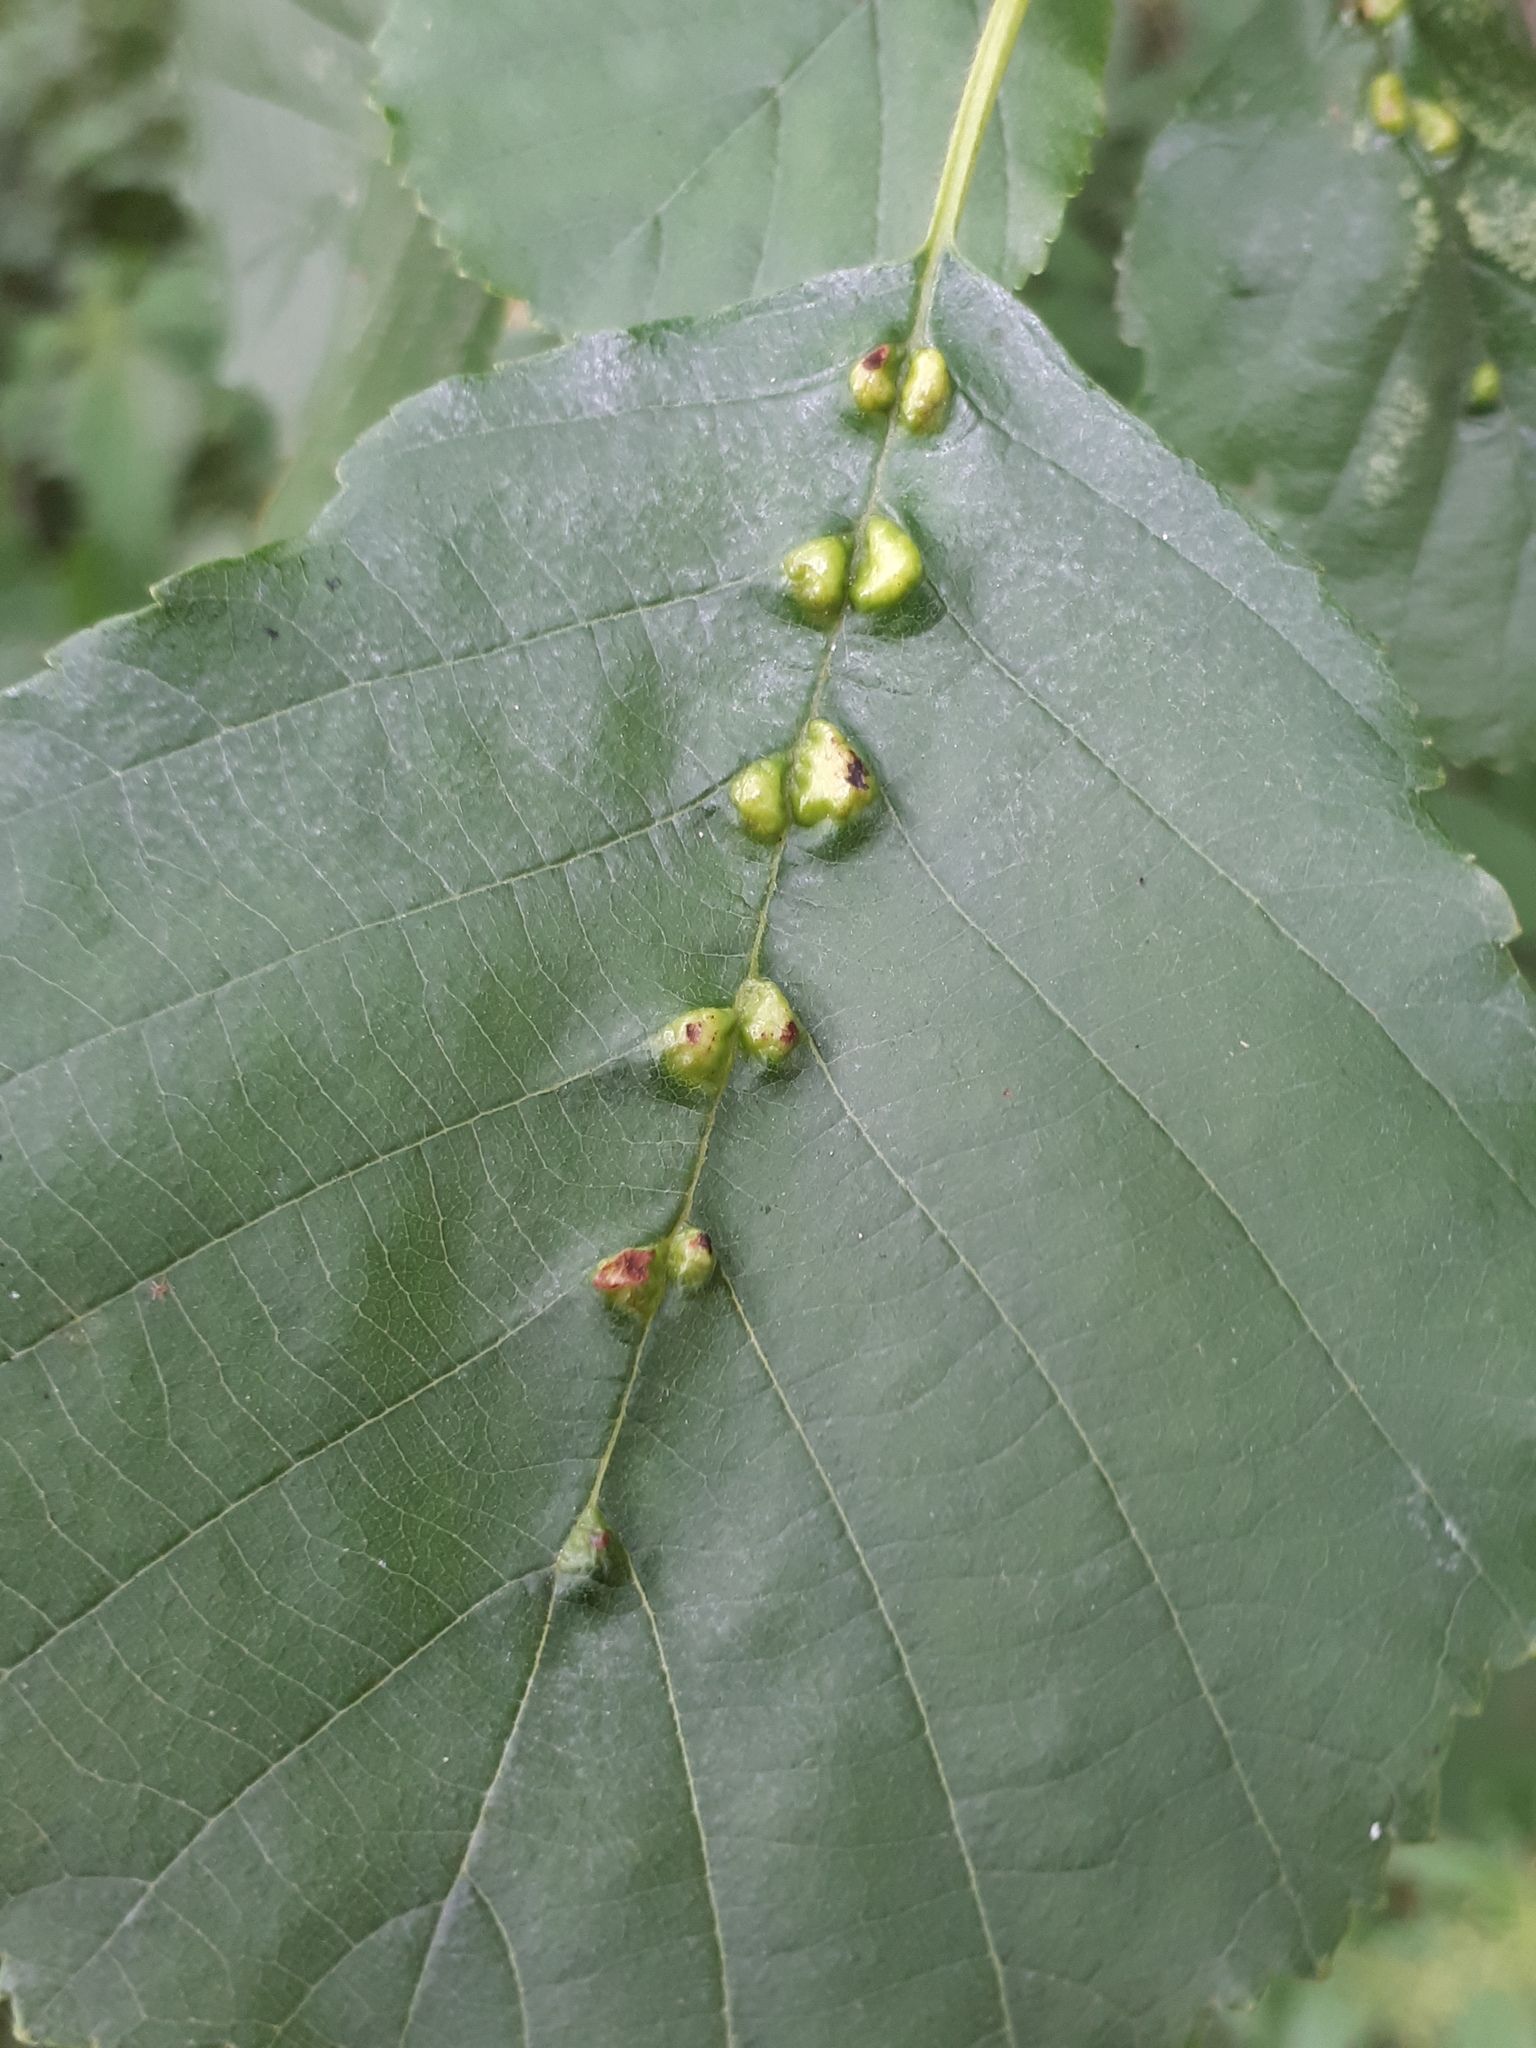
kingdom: Animalia
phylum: Arthropoda
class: Arachnida
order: Trombidiformes
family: Eriophyidae
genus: Eriophyes
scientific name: Eriophyes inangulis
